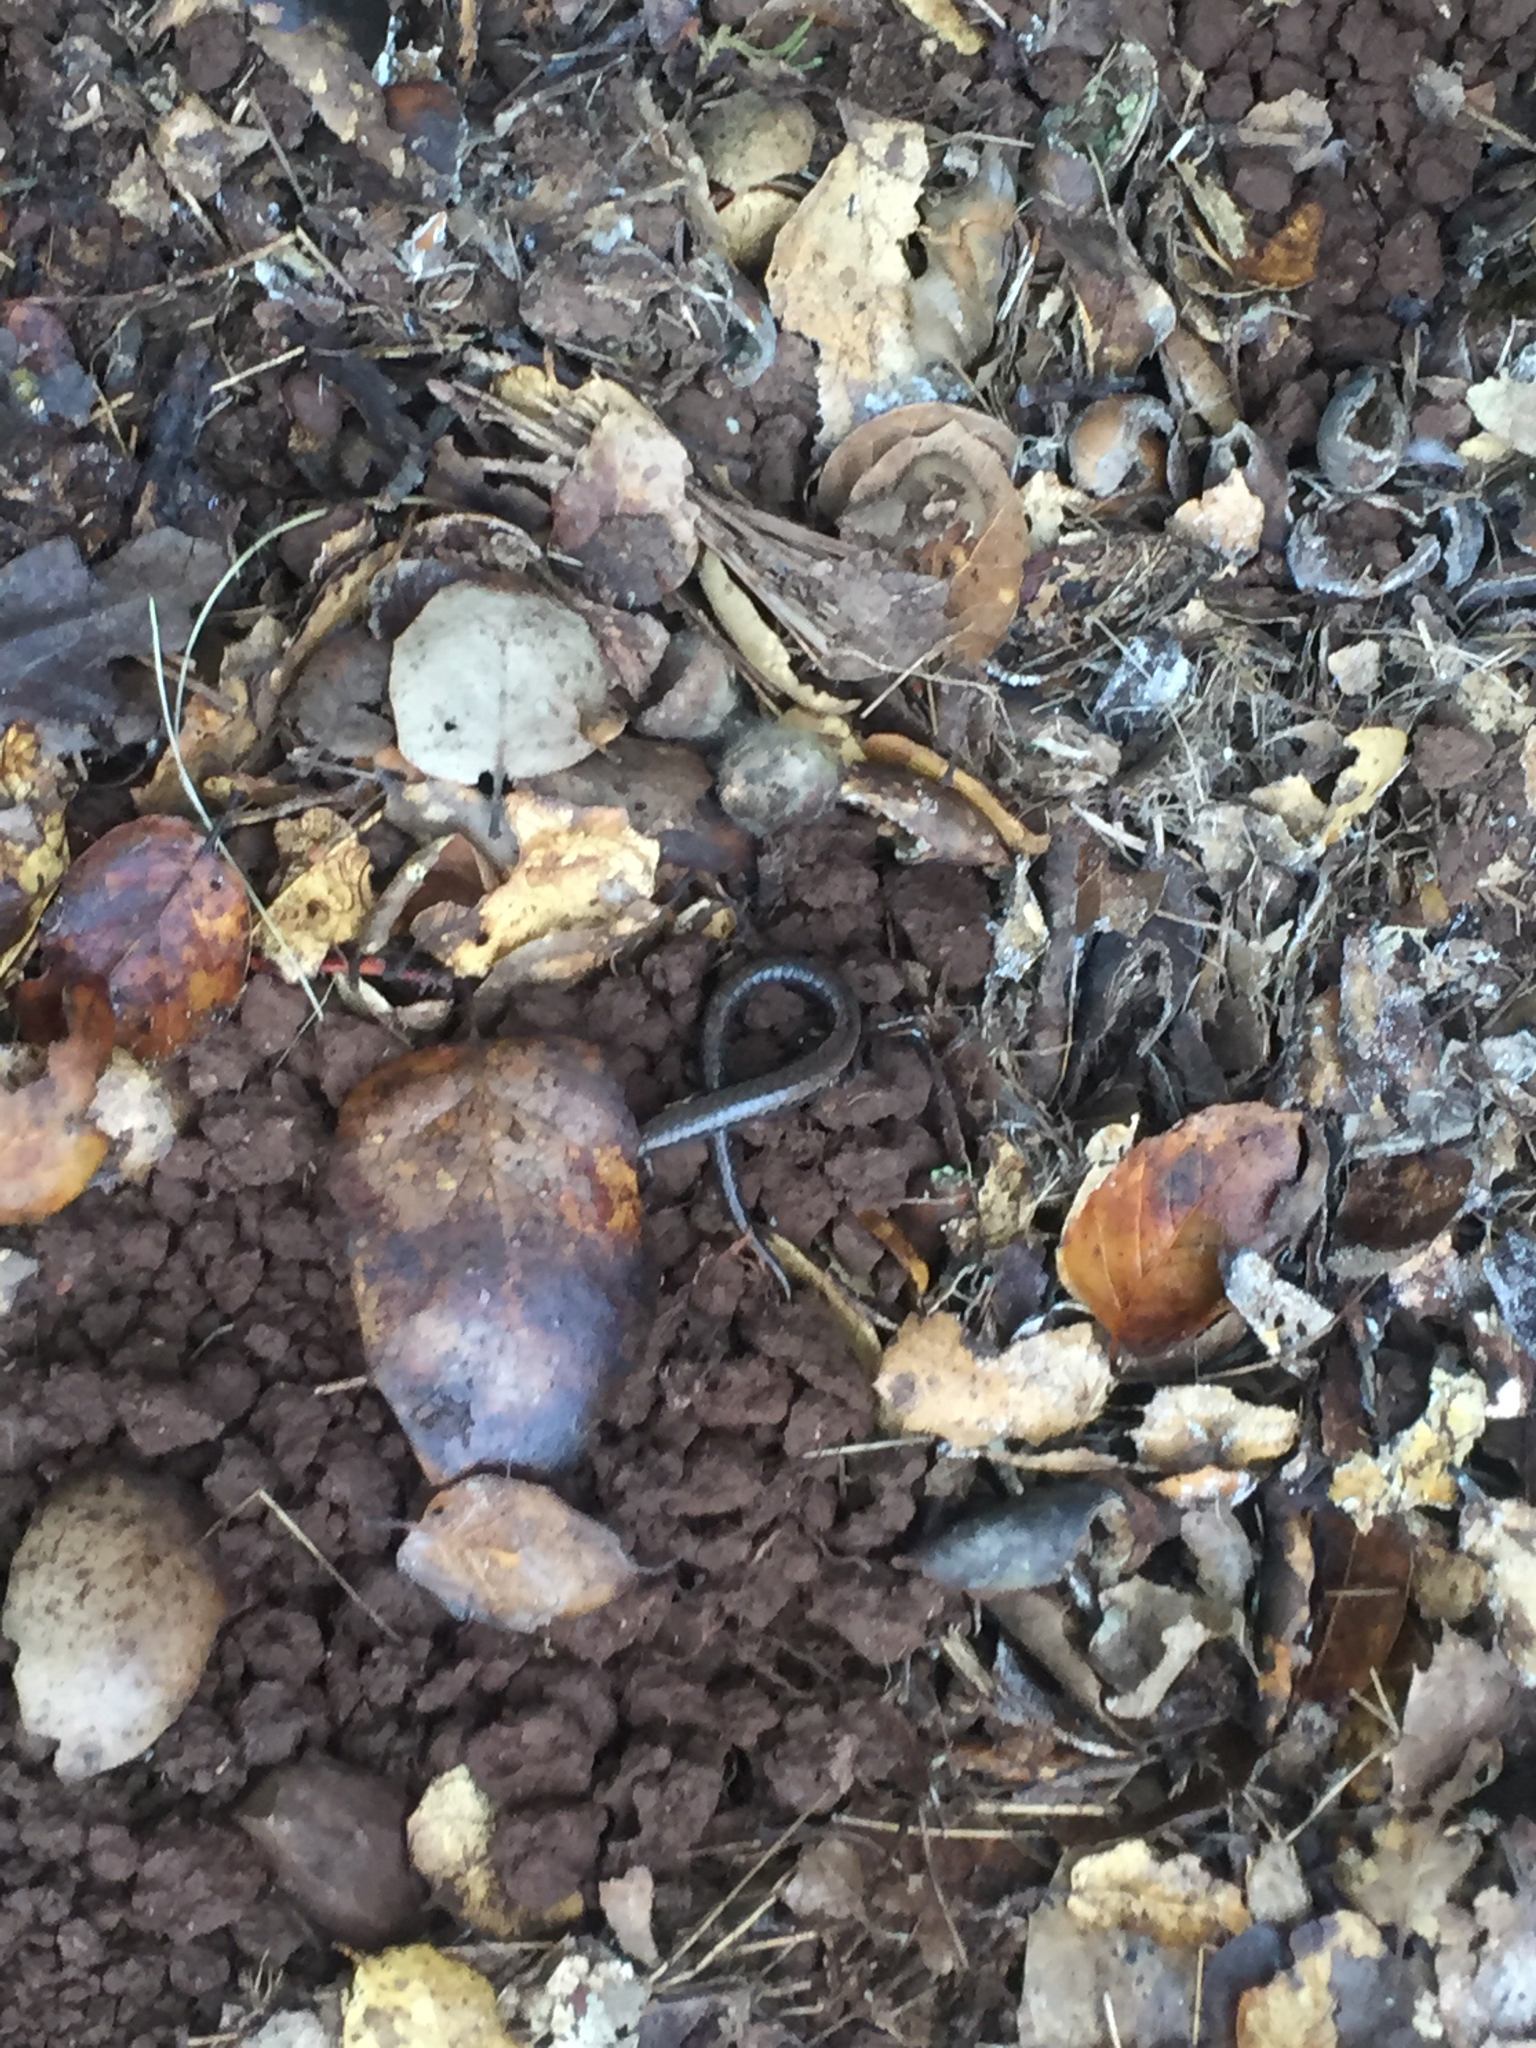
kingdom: Animalia
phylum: Chordata
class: Amphibia
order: Caudata
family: Plethodontidae
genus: Batrachoseps
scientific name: Batrachoseps attenuatus
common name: California slender salamander
